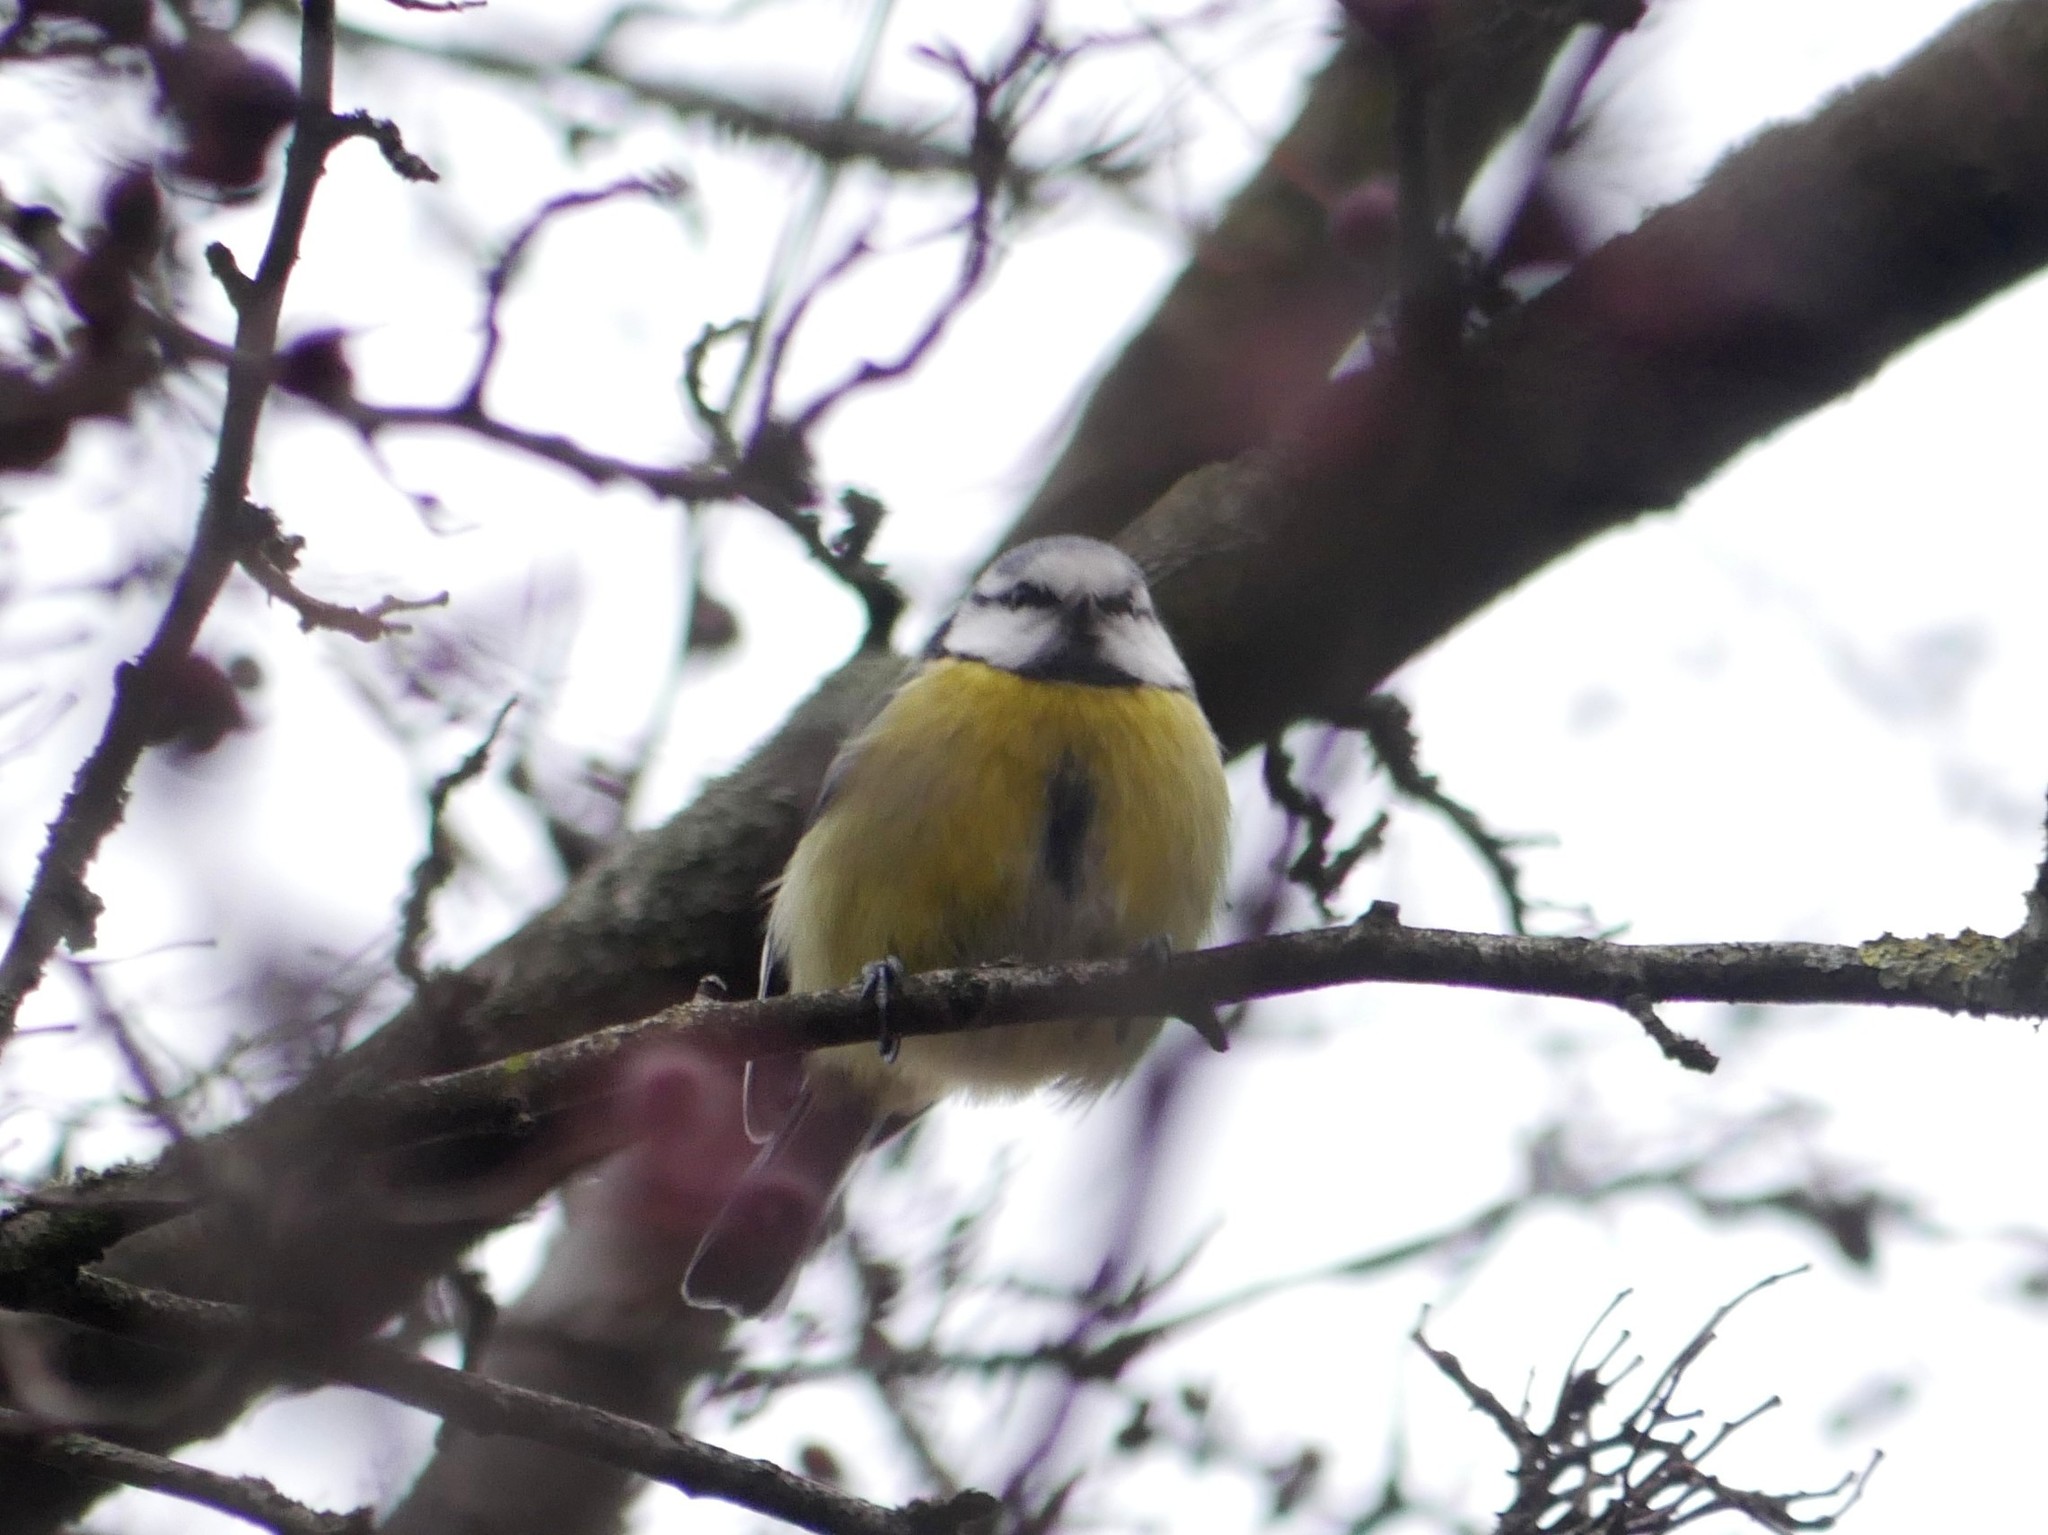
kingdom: Animalia
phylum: Chordata
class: Aves
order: Passeriformes
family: Paridae
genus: Cyanistes
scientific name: Cyanistes caeruleus
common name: Eurasian blue tit
